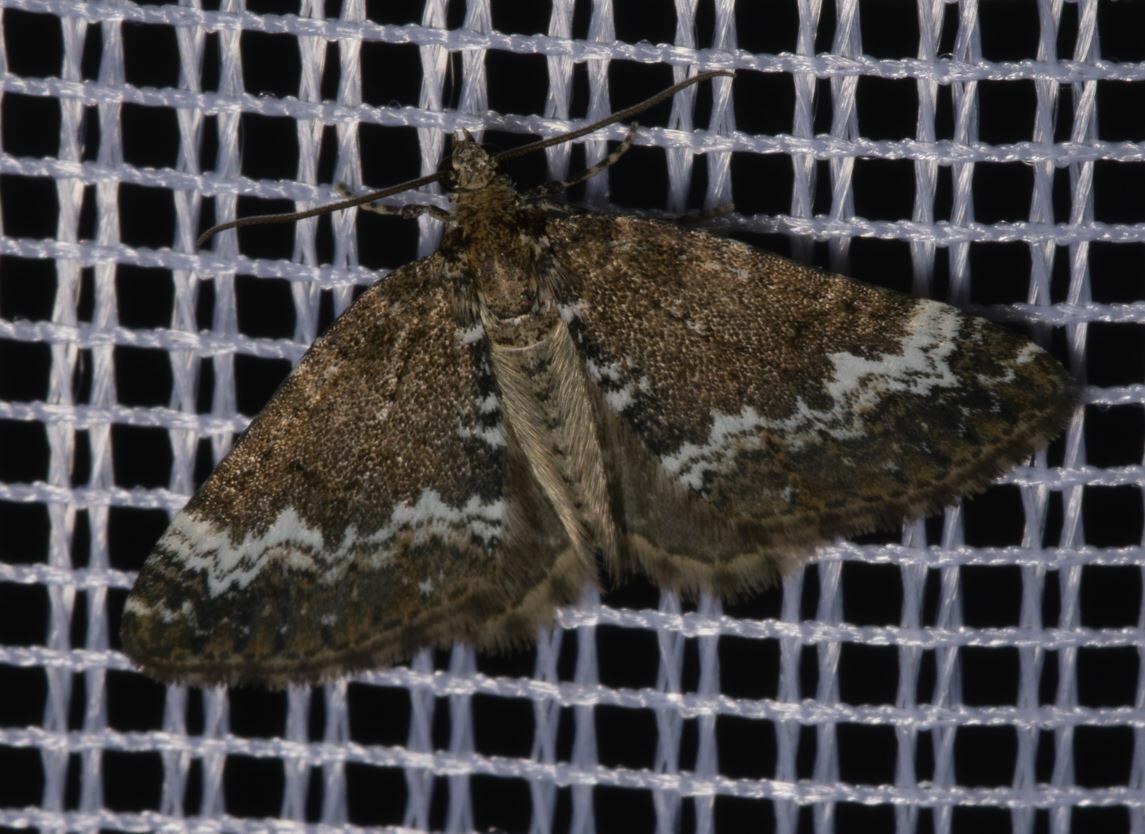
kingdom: Animalia
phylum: Arthropoda
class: Insecta
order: Lepidoptera
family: Geometridae
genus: Perizoma
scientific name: Perizoma alchemillata
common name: Small rivulet
